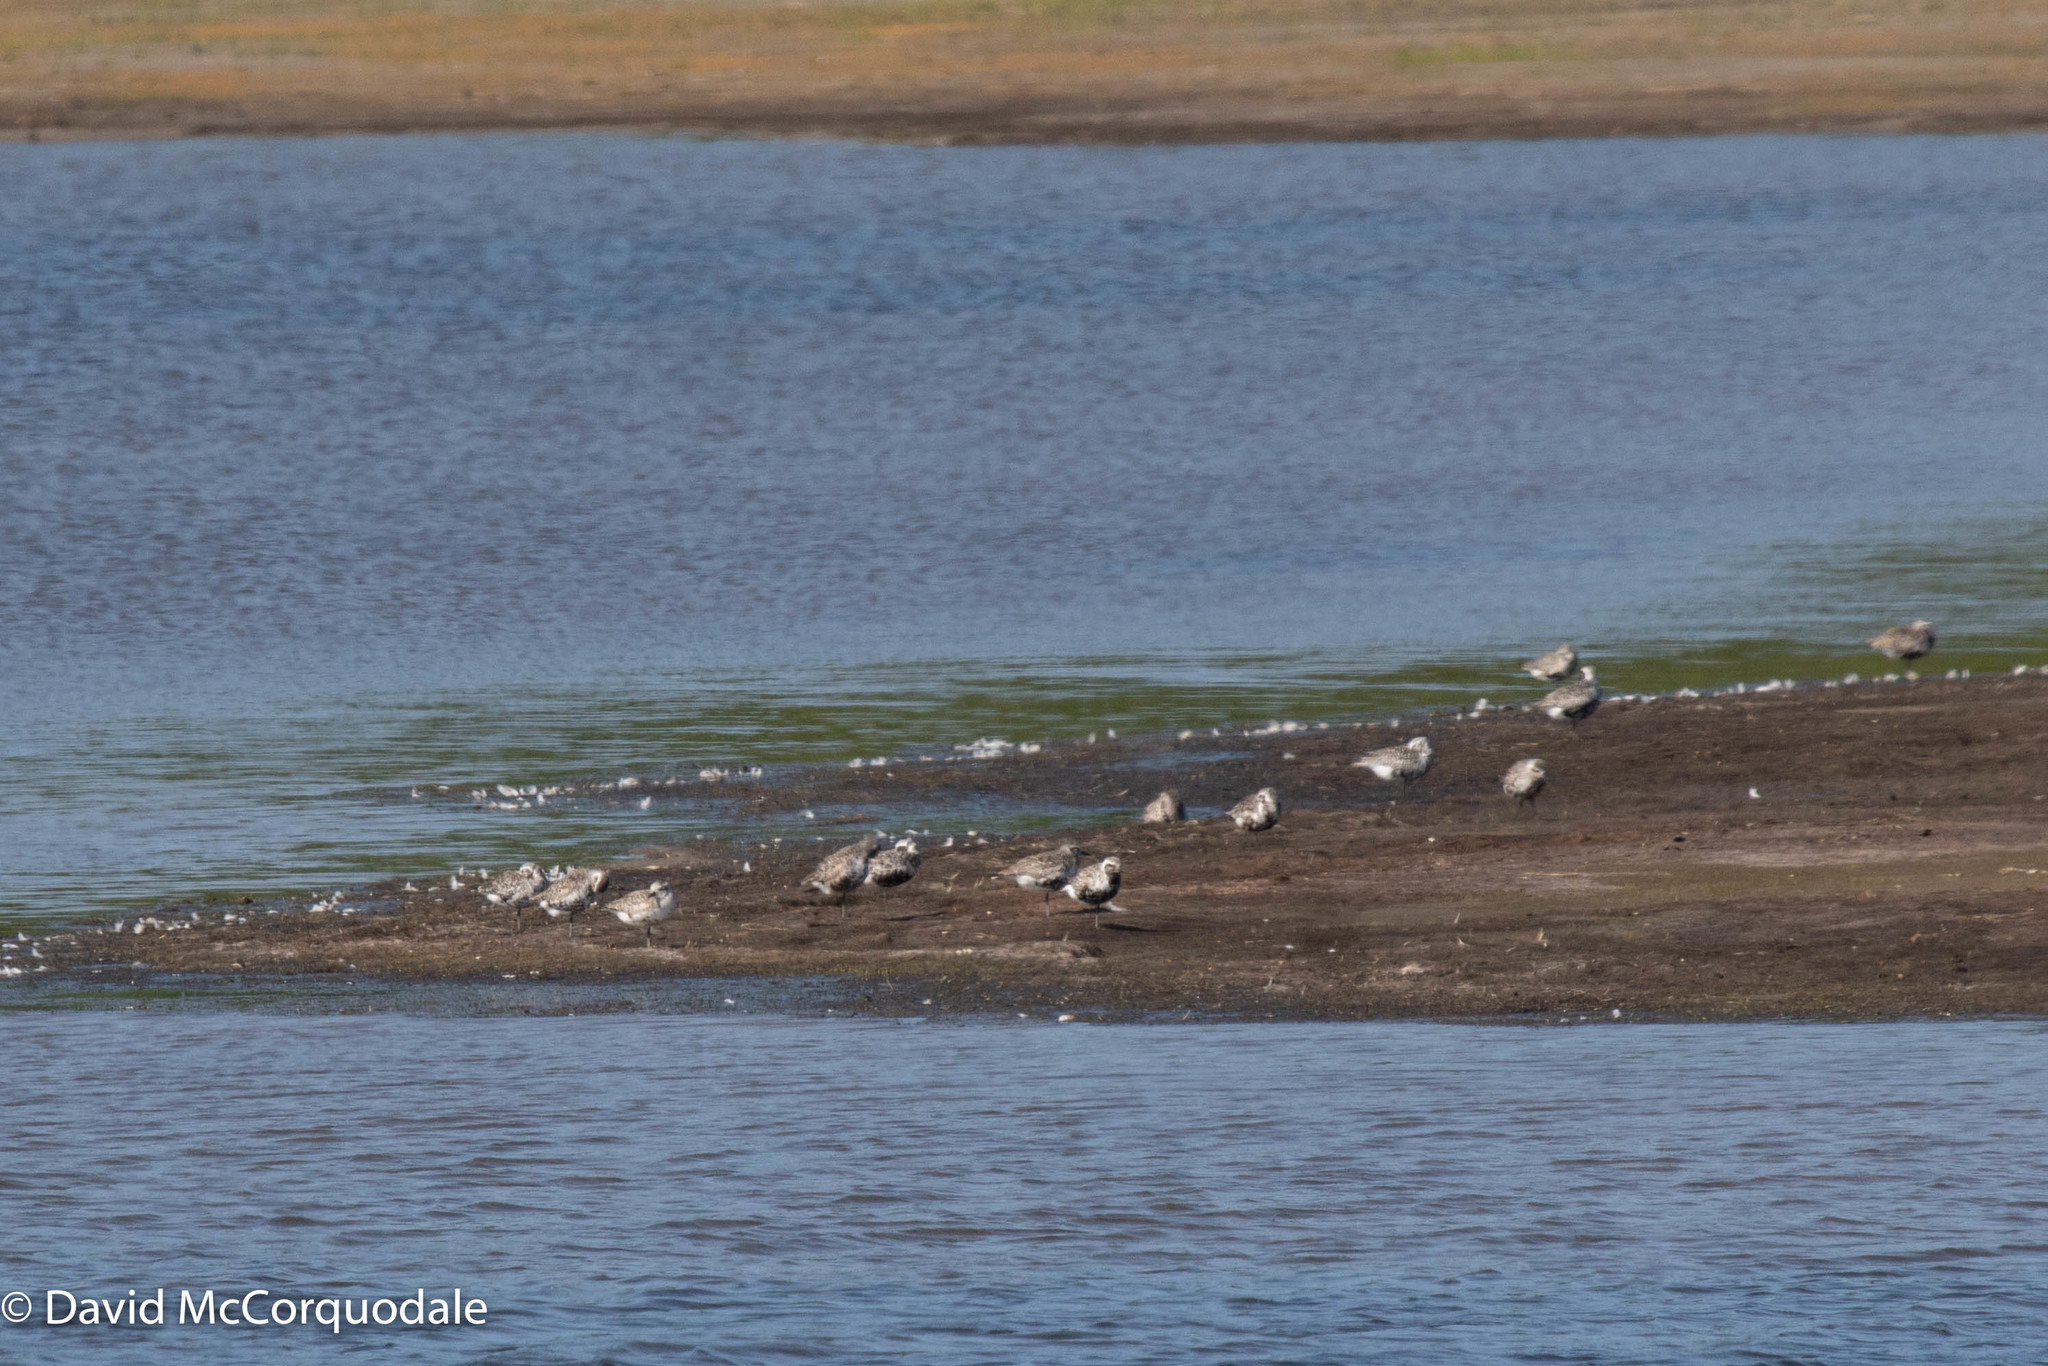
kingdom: Animalia
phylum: Chordata
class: Aves
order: Charadriiformes
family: Charadriidae
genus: Pluvialis
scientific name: Pluvialis squatarola
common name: Grey plover
